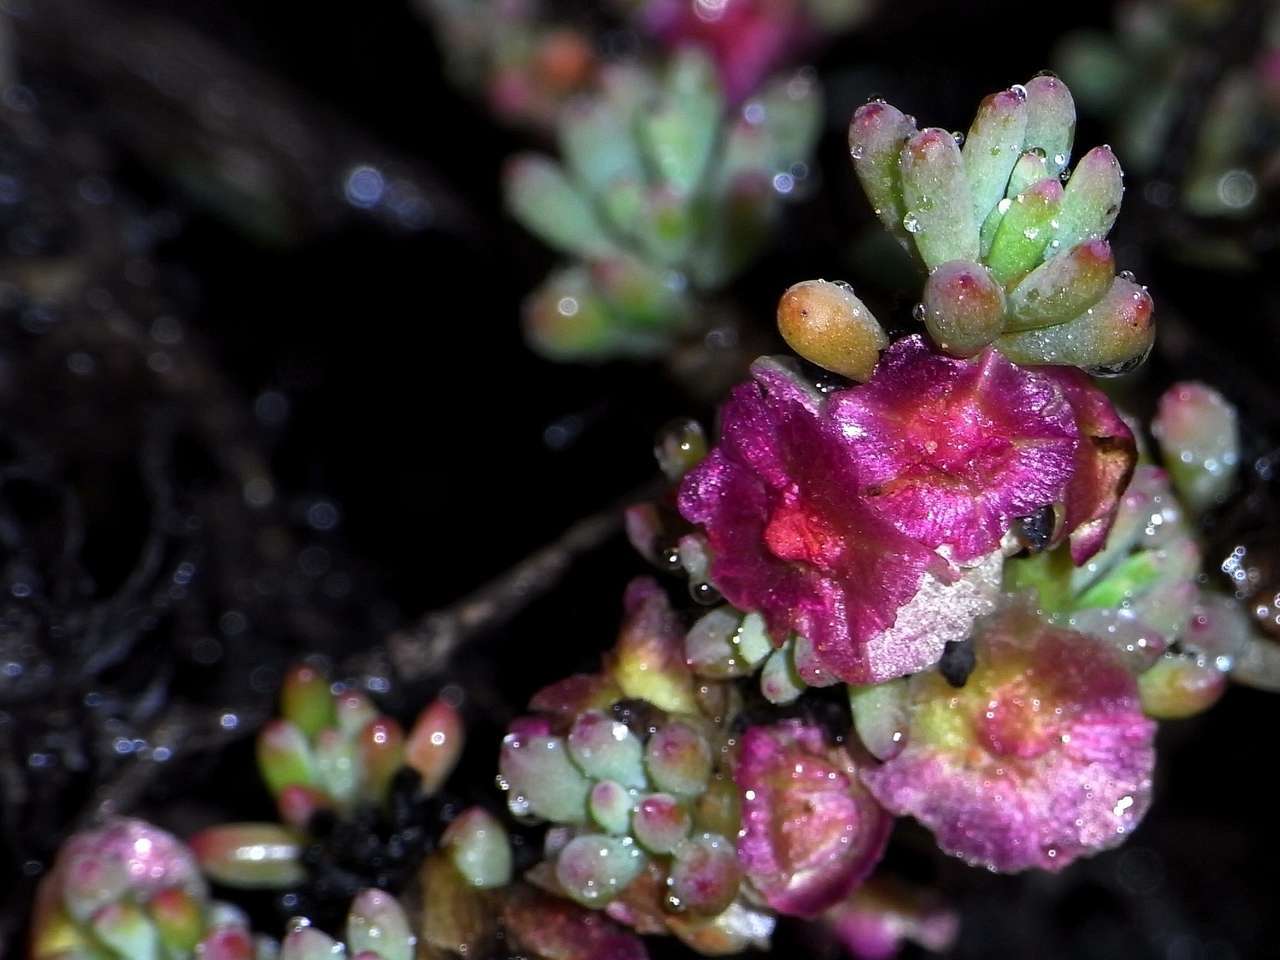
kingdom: Plantae
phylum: Tracheophyta
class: Magnoliopsida
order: Caryophyllales
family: Amaranthaceae
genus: Maireana
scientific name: Maireana erioclada
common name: Rosy bluebush
